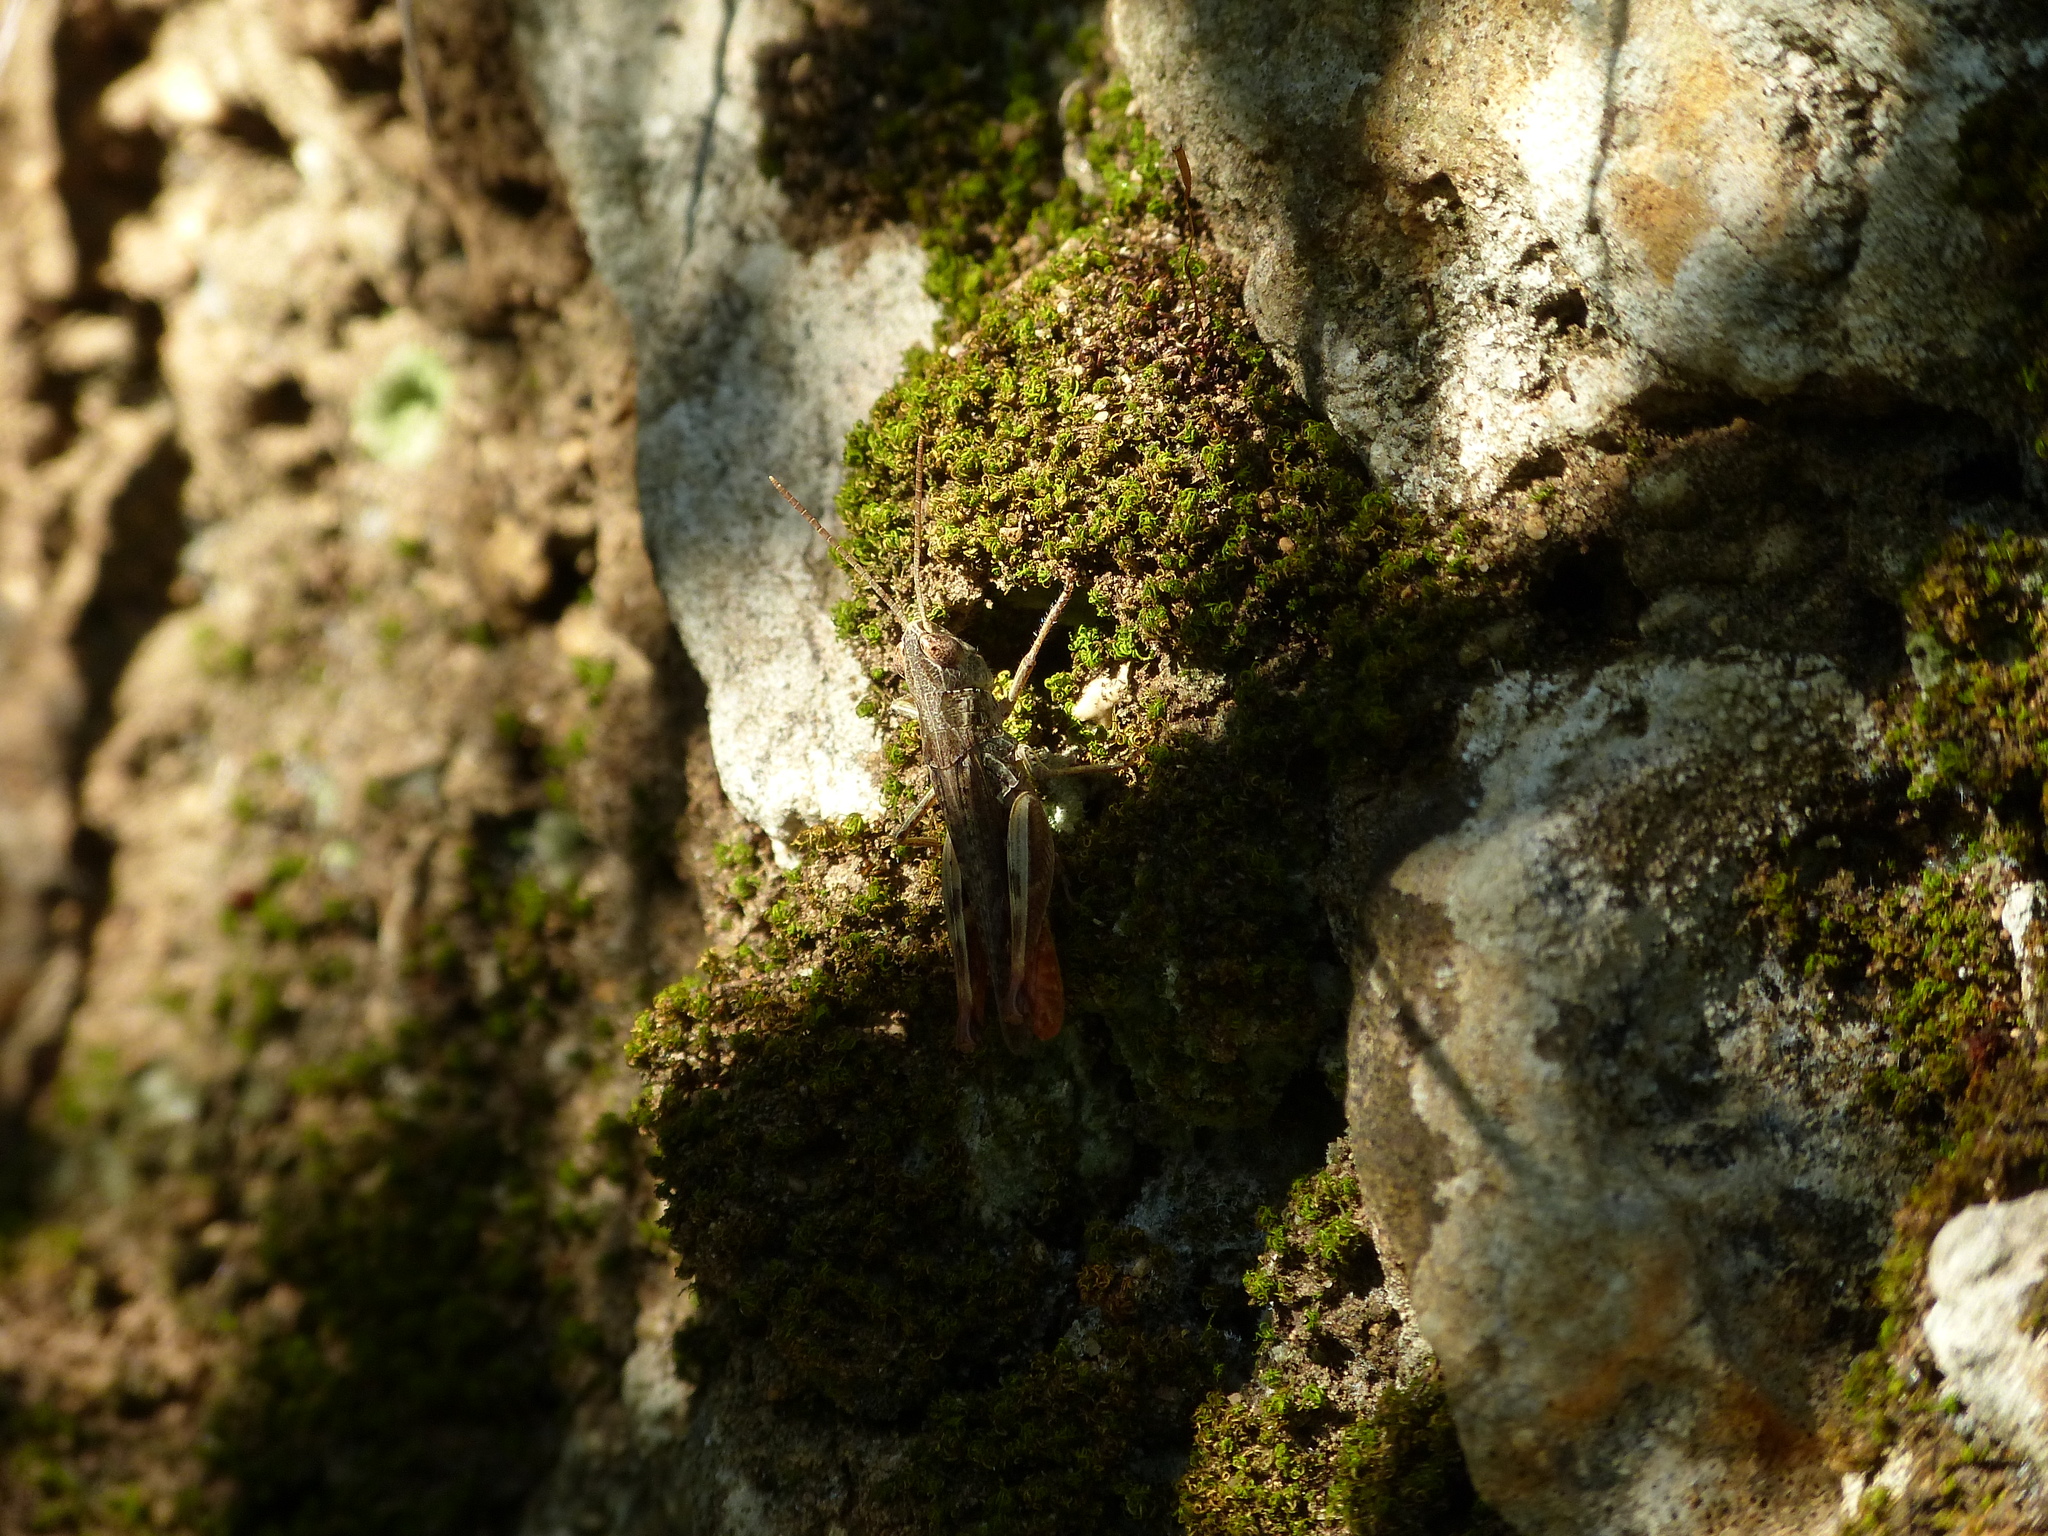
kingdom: Animalia
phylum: Arthropoda
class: Insecta
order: Orthoptera
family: Acrididae
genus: Omocestus
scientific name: Omocestus raymondi
